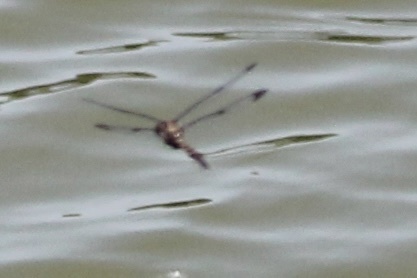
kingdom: Animalia
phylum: Arthropoda
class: Insecta
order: Odonata
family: Corduliidae
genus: Epitheca
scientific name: Epitheca princeps
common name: Prince baskettail
